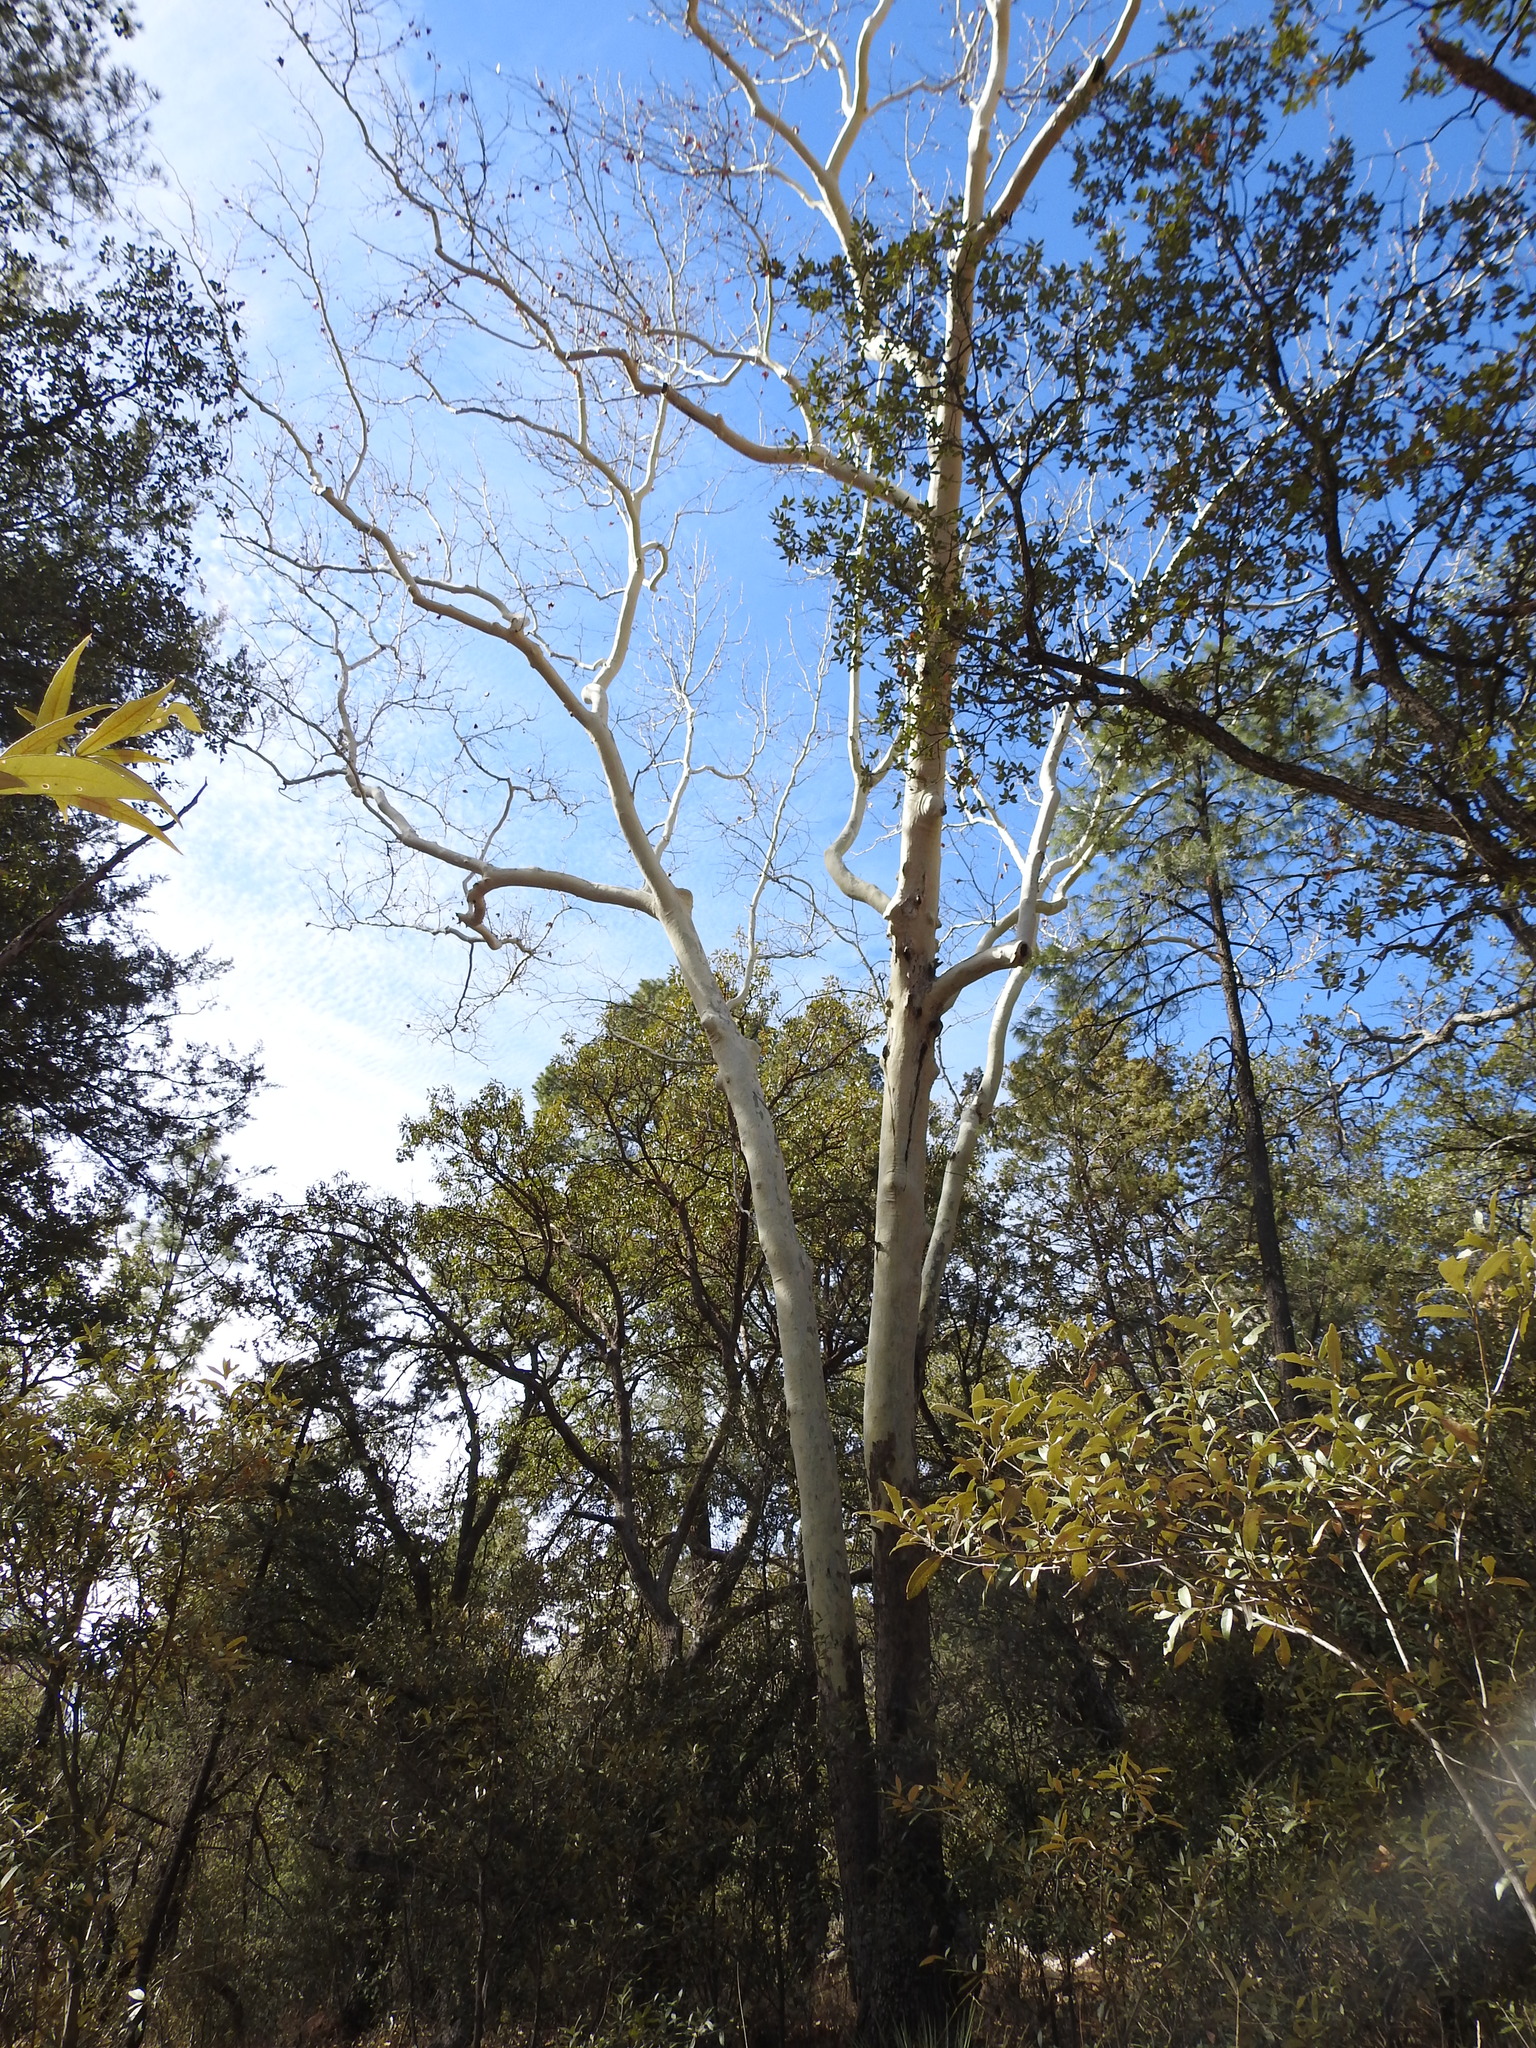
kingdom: Plantae
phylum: Tracheophyta
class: Magnoliopsida
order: Proteales
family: Platanaceae
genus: Platanus
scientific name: Platanus wrightii
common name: Arizona sycamore
